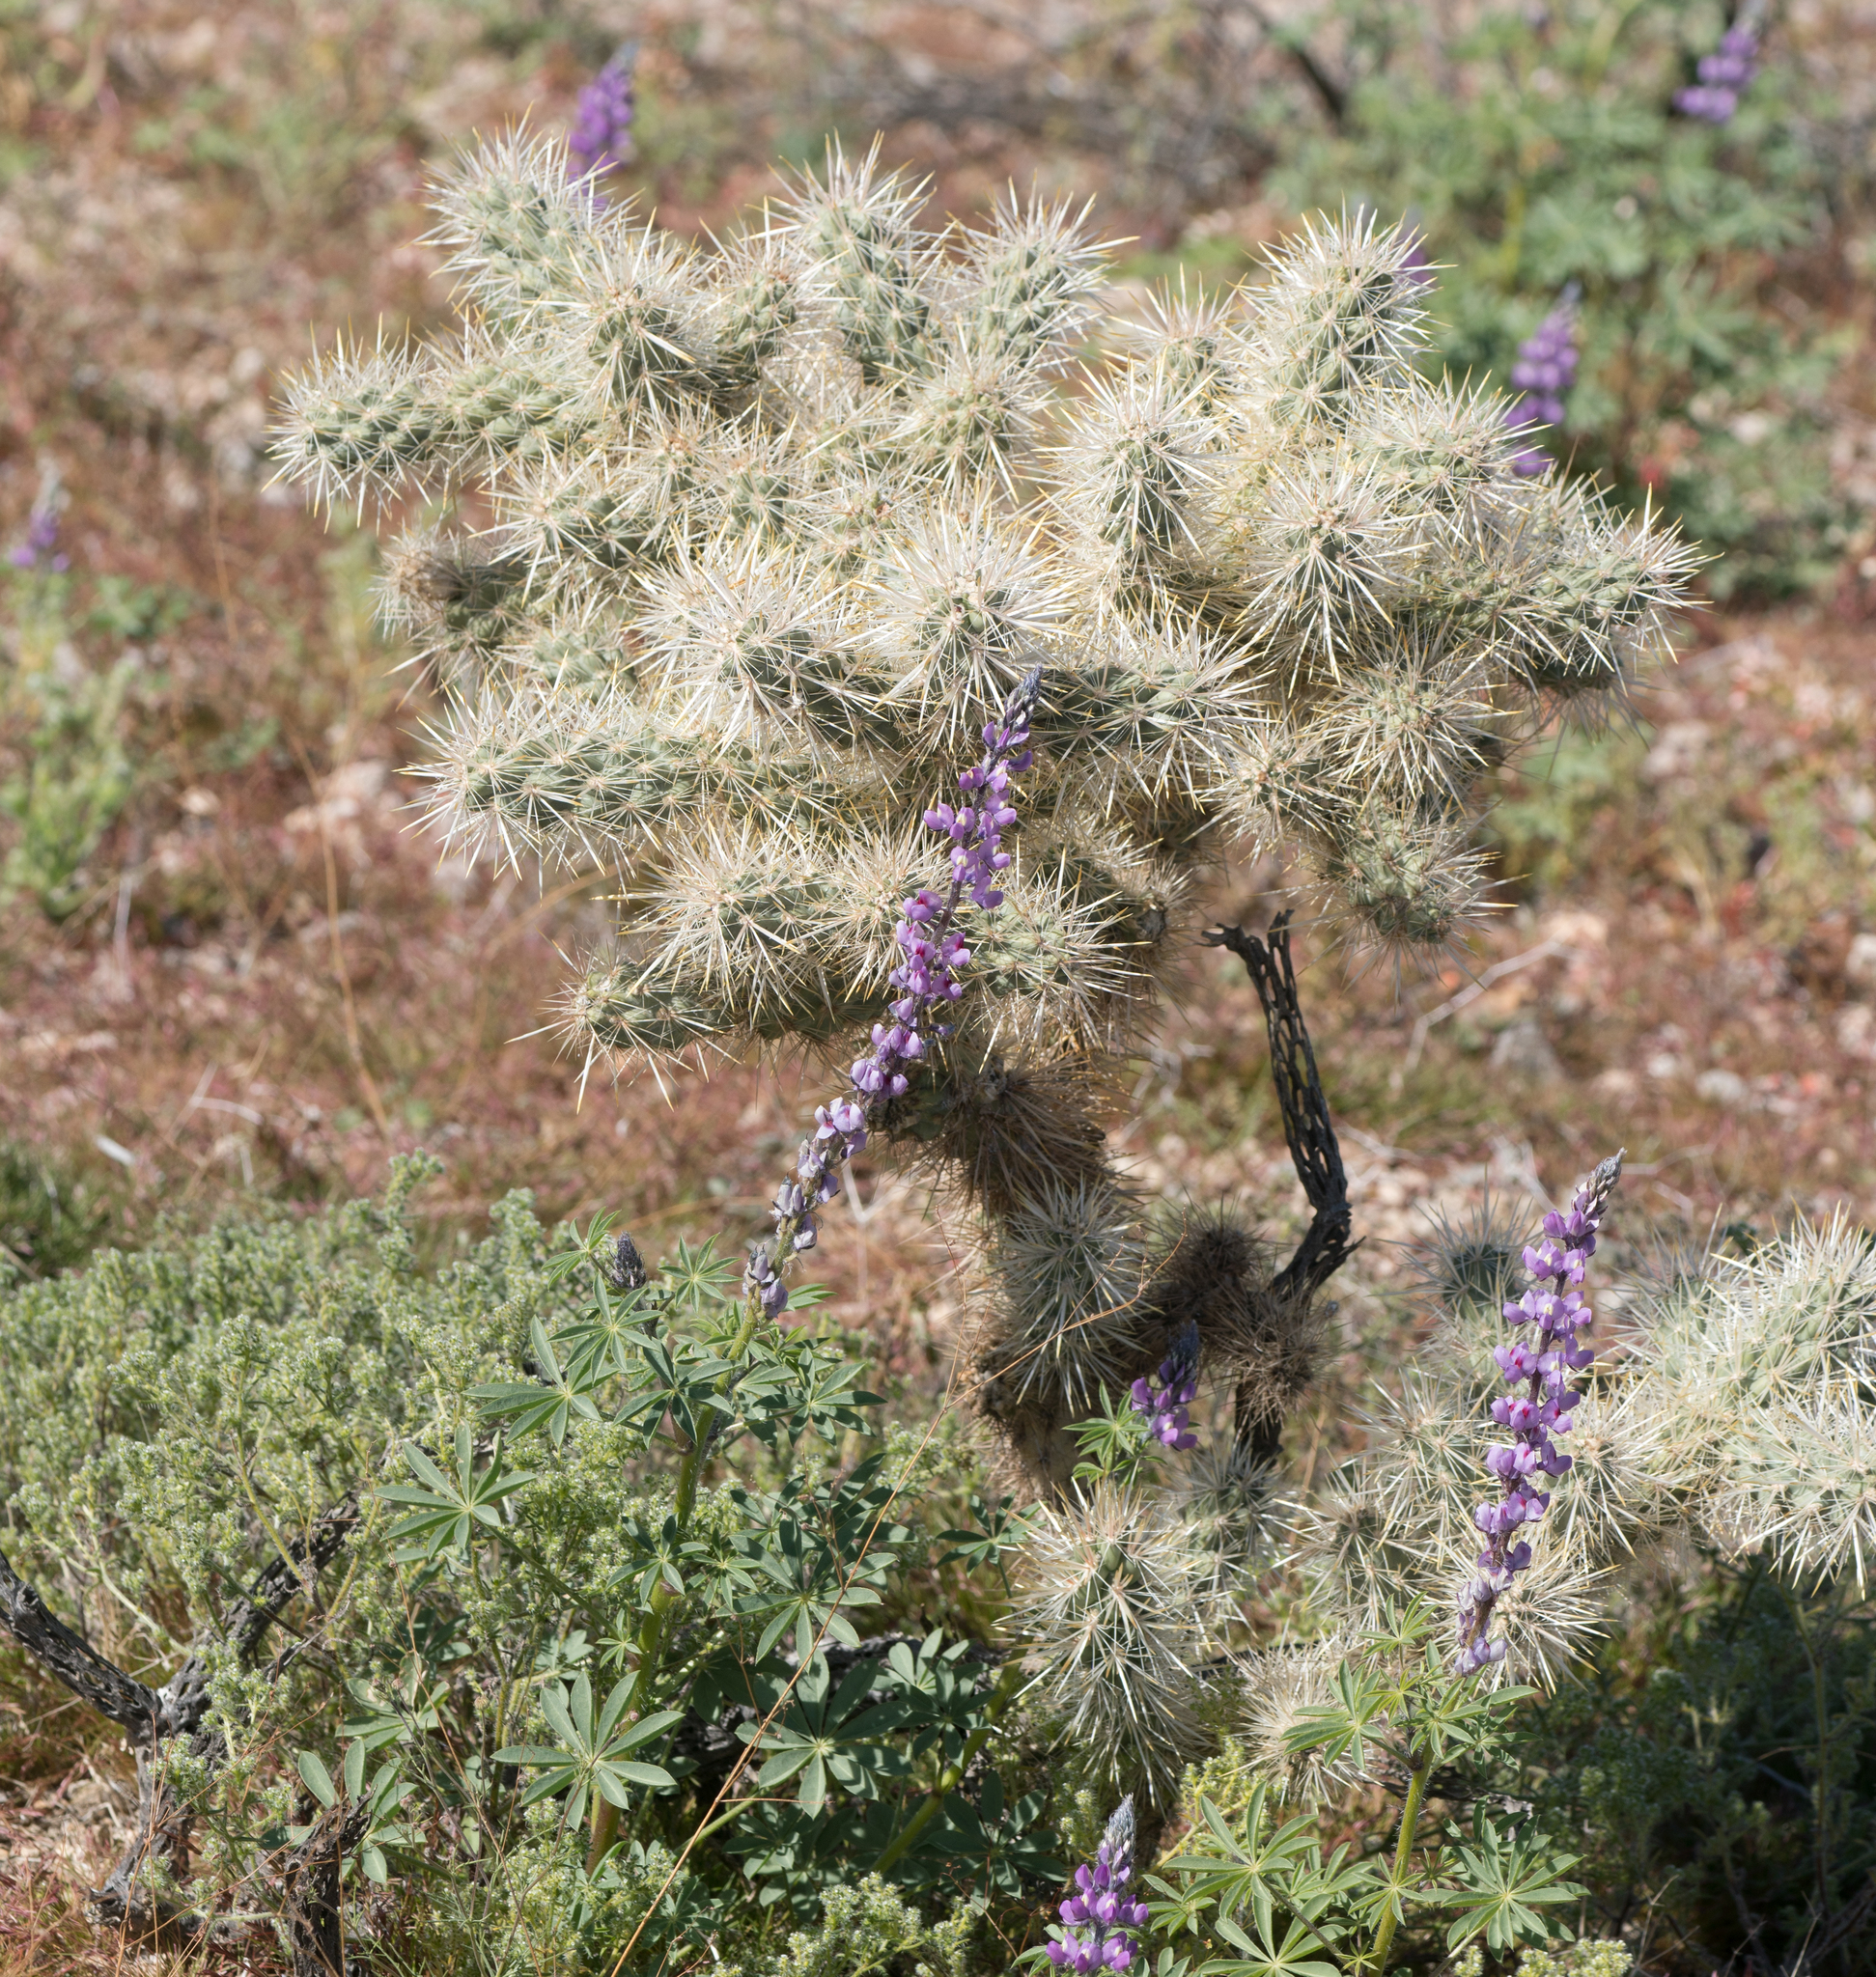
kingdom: Plantae
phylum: Tracheophyta
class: Magnoliopsida
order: Caryophyllales
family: Cactaceae
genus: Cylindropuntia
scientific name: Cylindropuntia echinocarpa
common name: Ground cholla
